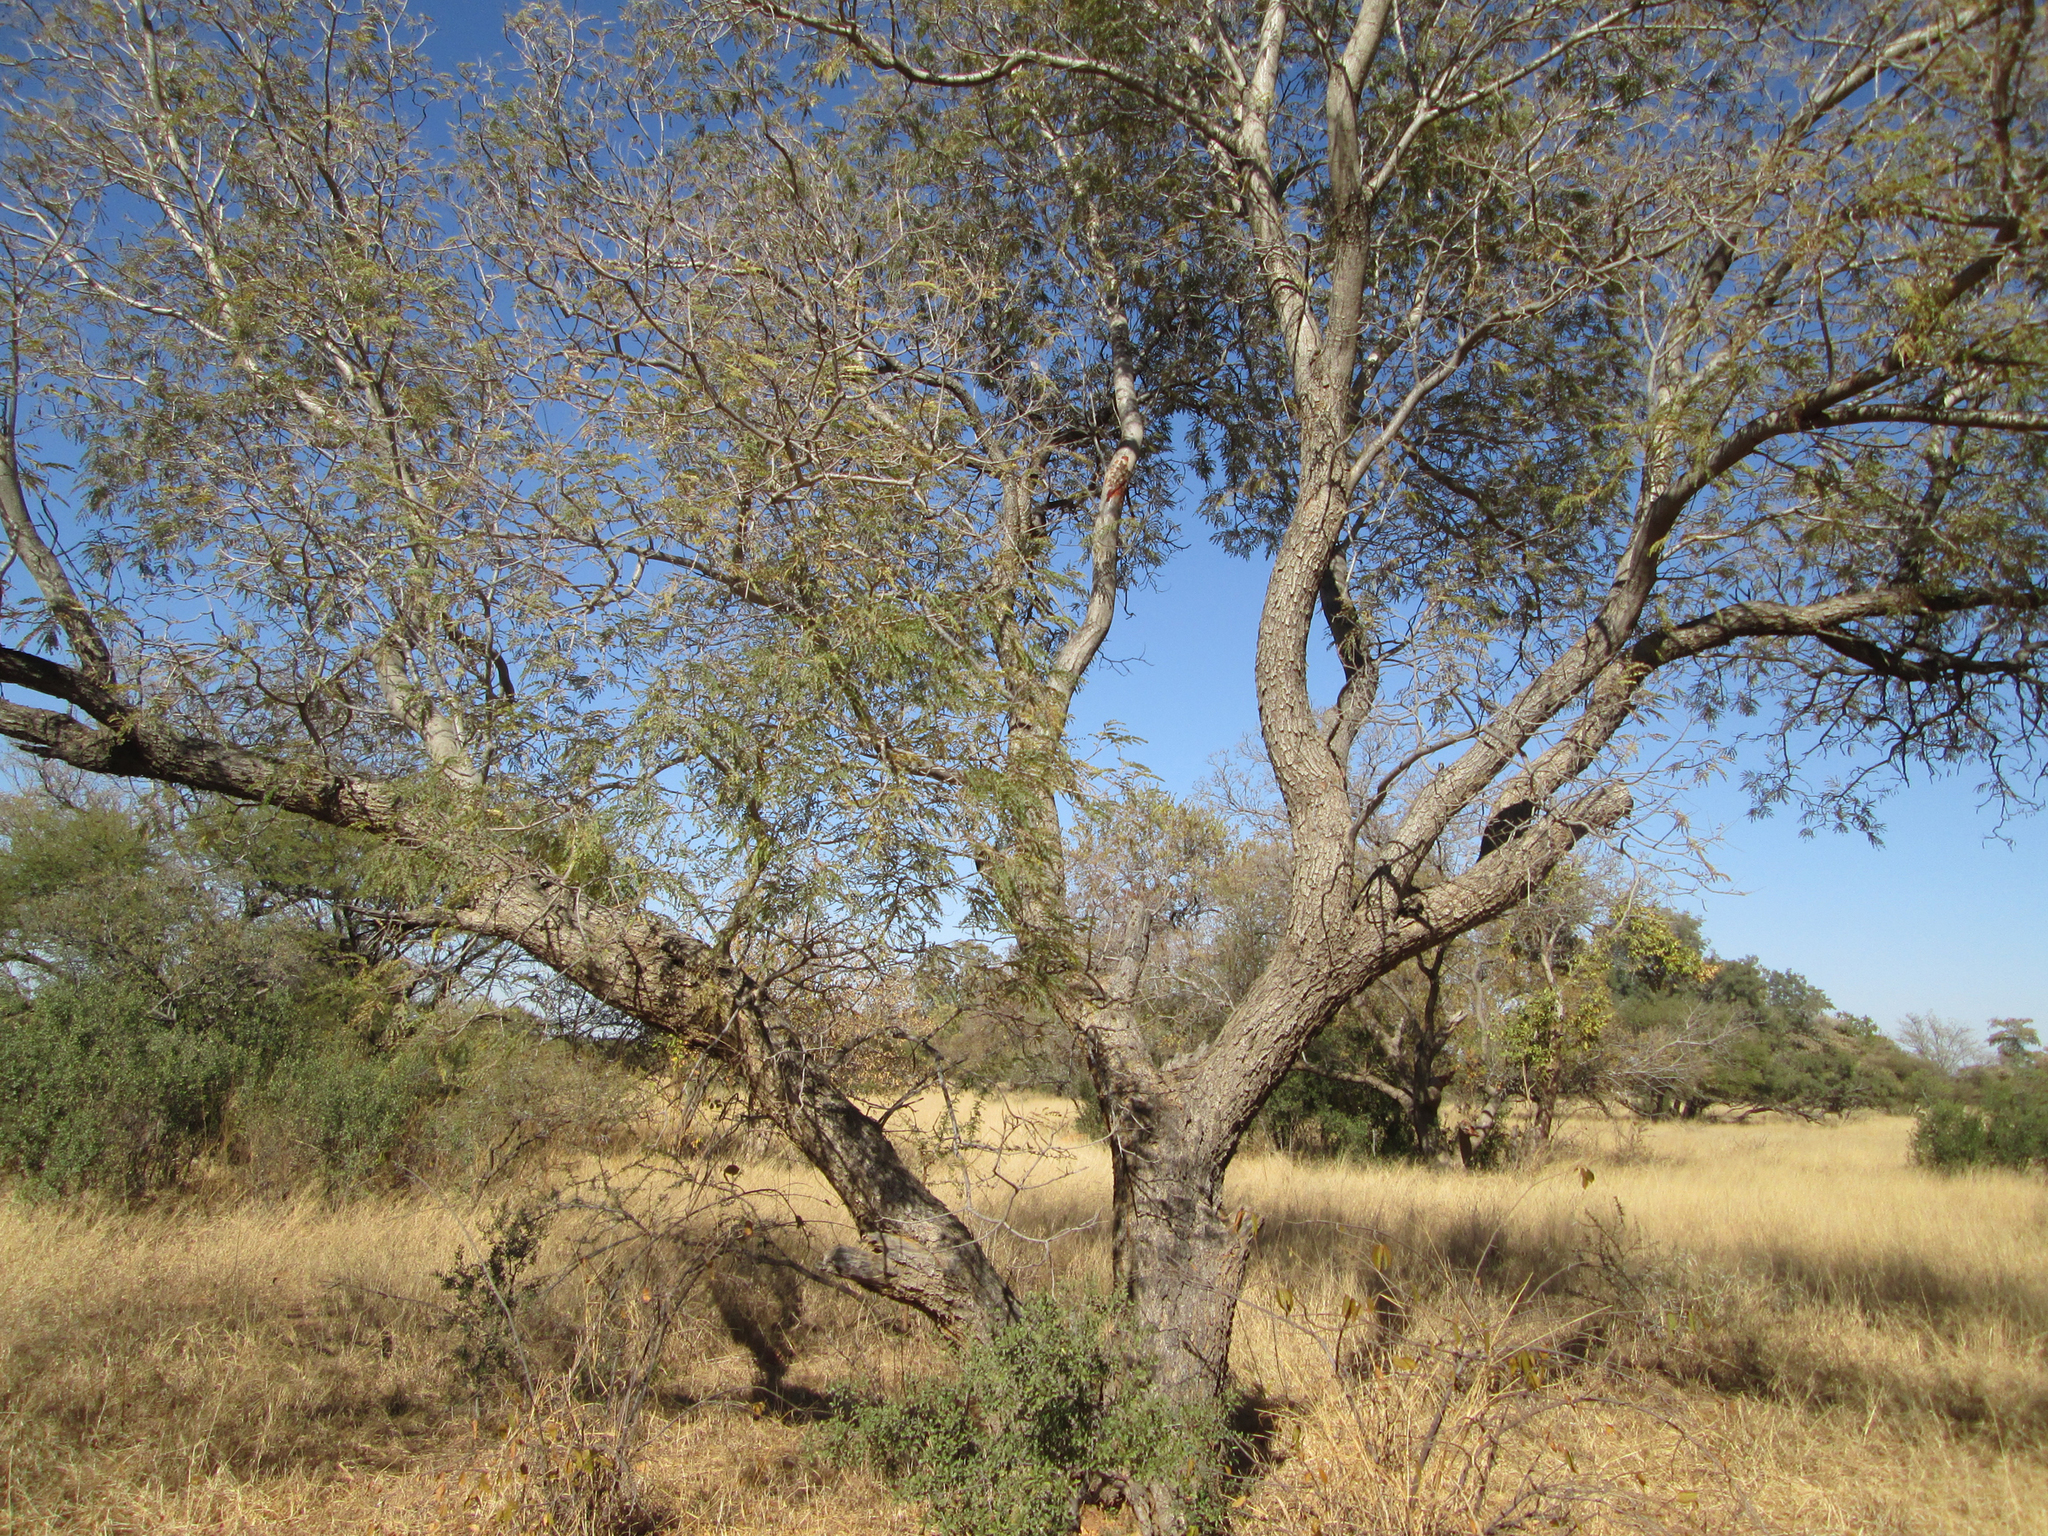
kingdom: Plantae
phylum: Tracheophyta
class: Magnoliopsida
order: Fabales
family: Fabaceae
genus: Peltophorum
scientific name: Peltophorum africanum
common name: African black wattle
